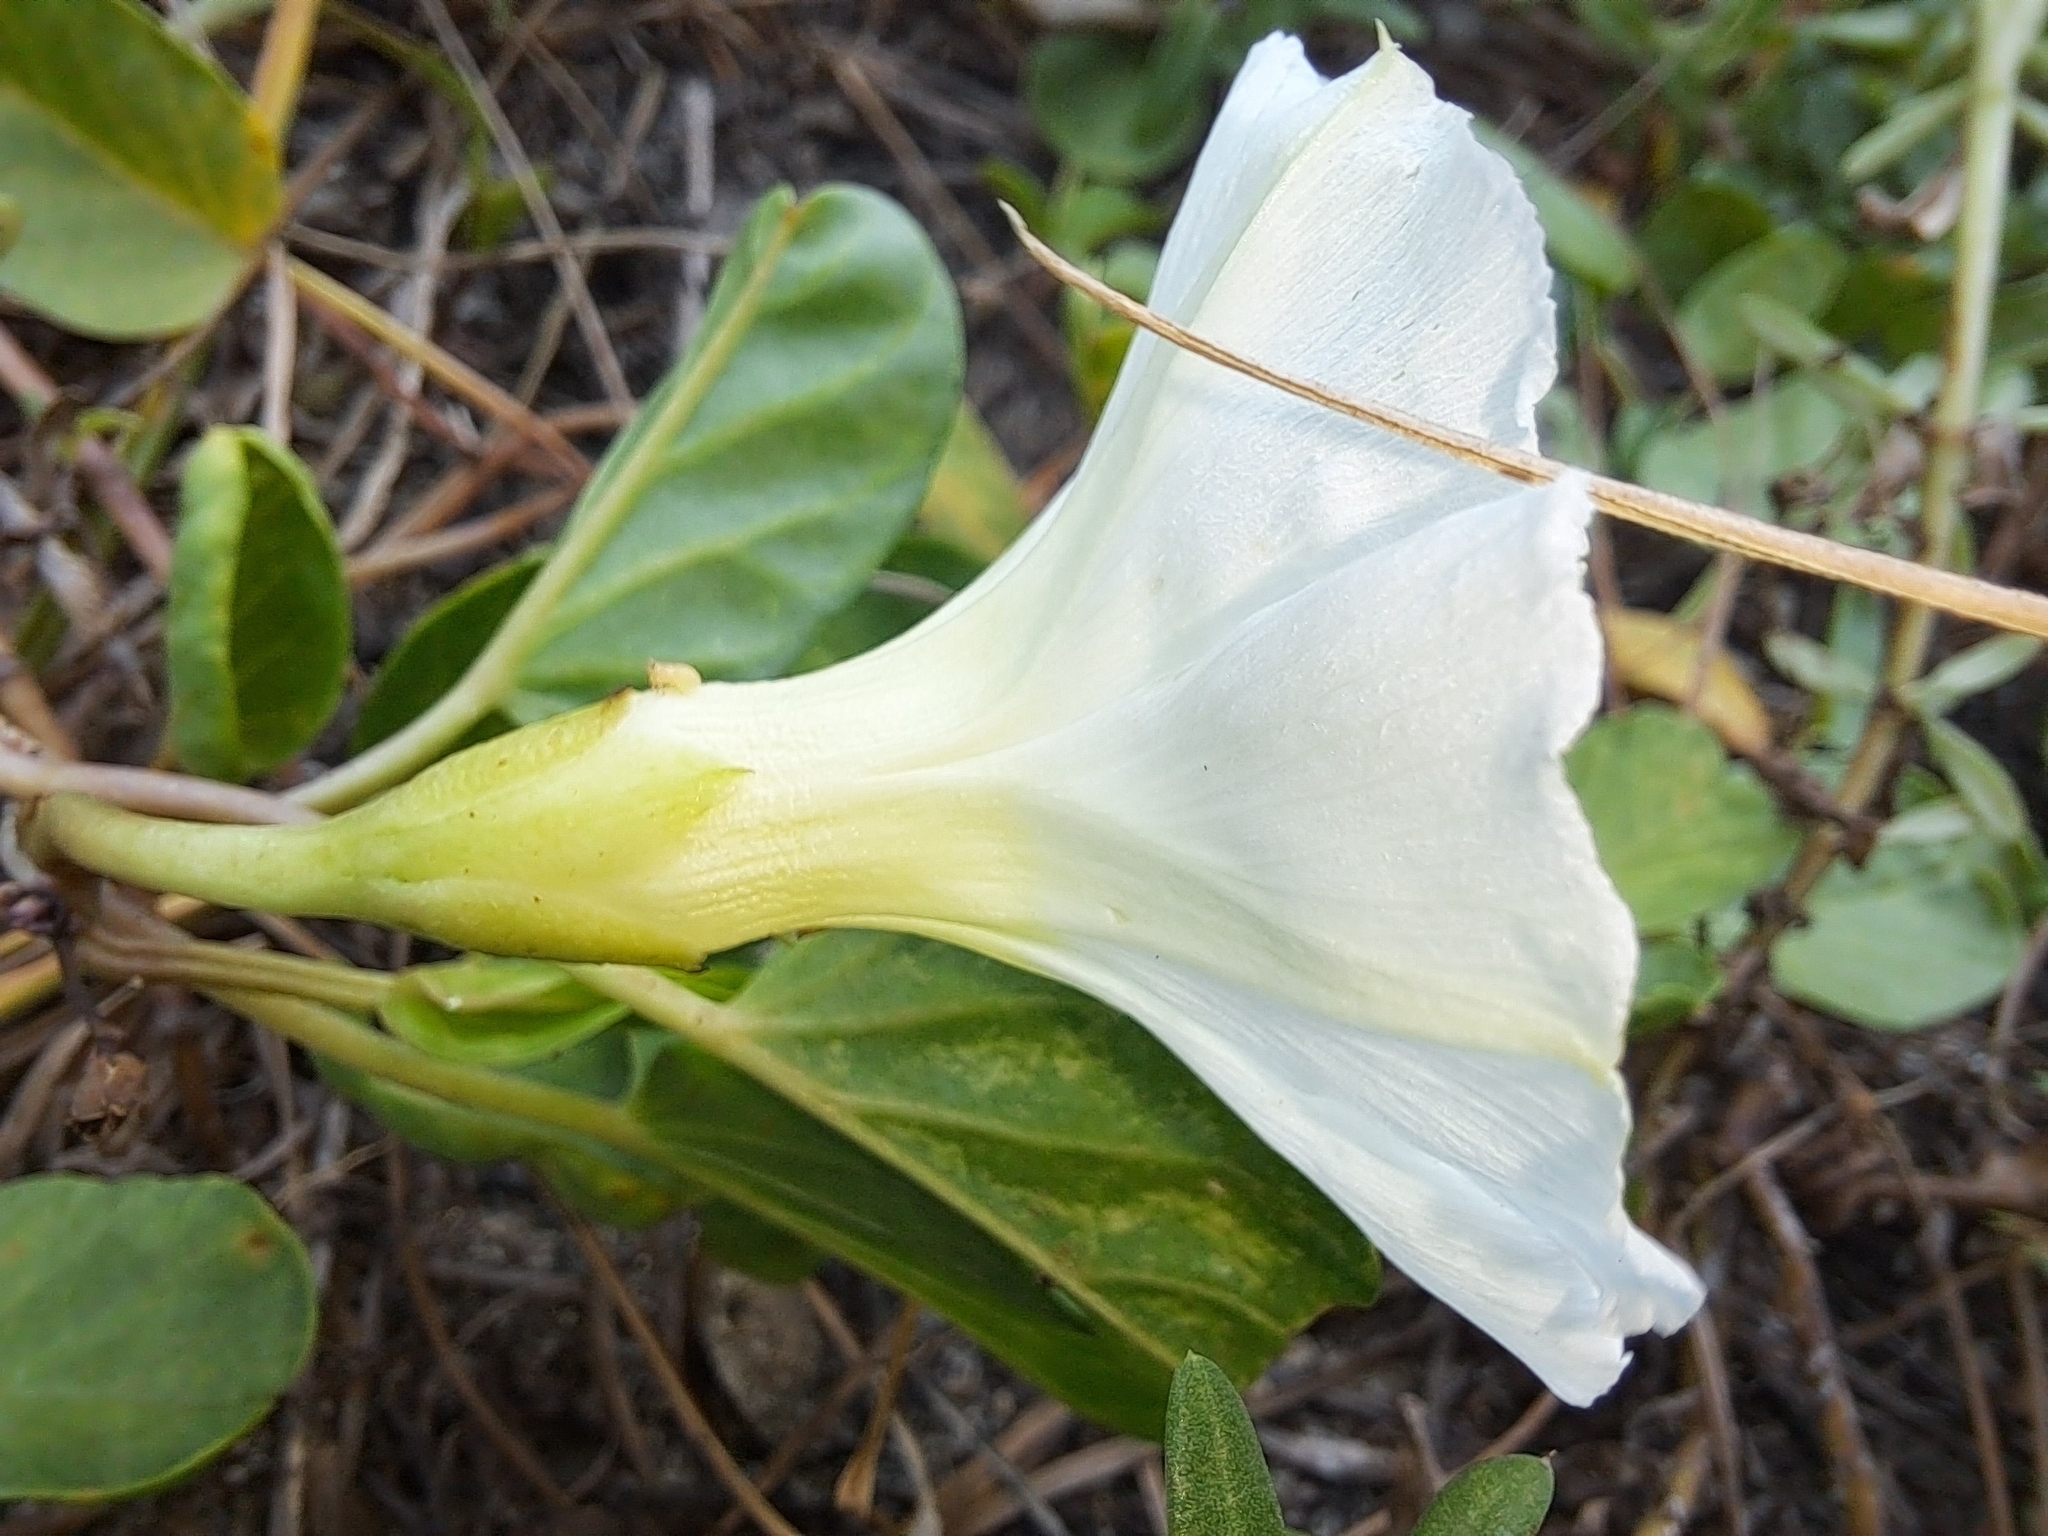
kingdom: Plantae
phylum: Tracheophyta
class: Magnoliopsida
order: Solanales
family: Convolvulaceae
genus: Ipomoea
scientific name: Ipomoea imperati
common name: Fiddle-leaf morning-glory
